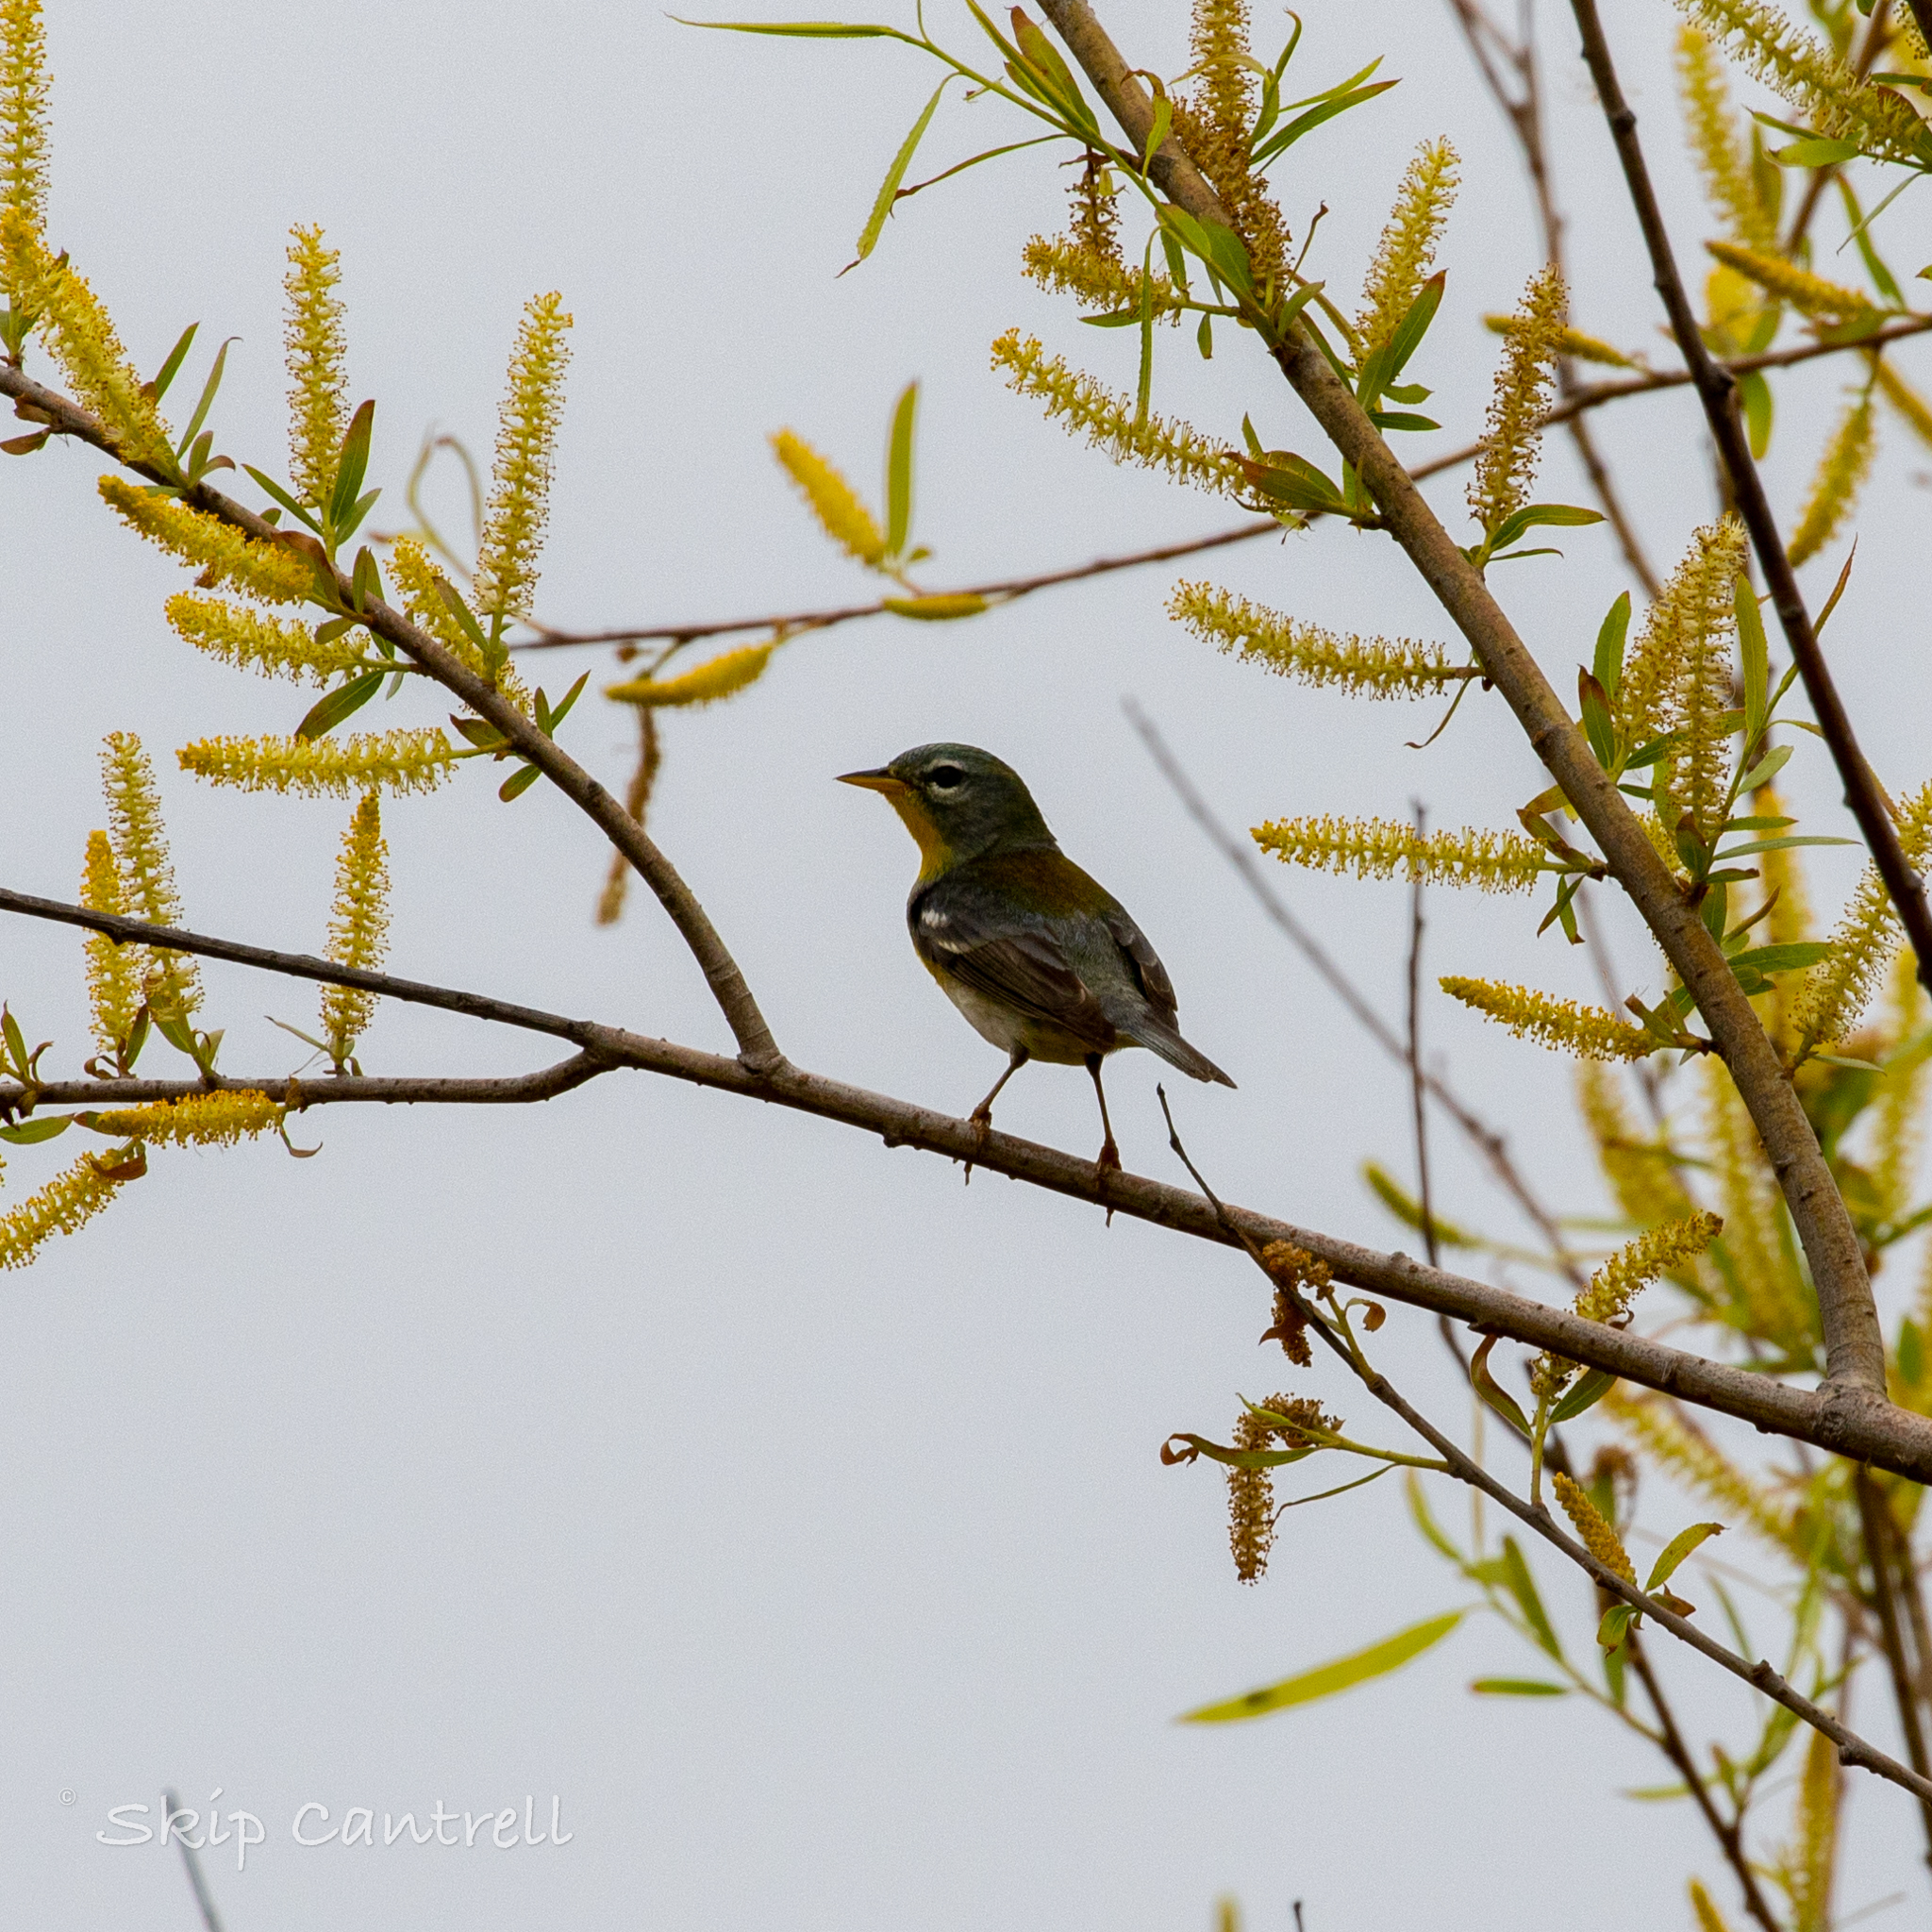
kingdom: Animalia
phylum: Chordata
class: Aves
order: Passeriformes
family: Parulidae
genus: Setophaga
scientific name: Setophaga americana
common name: Northern parula
